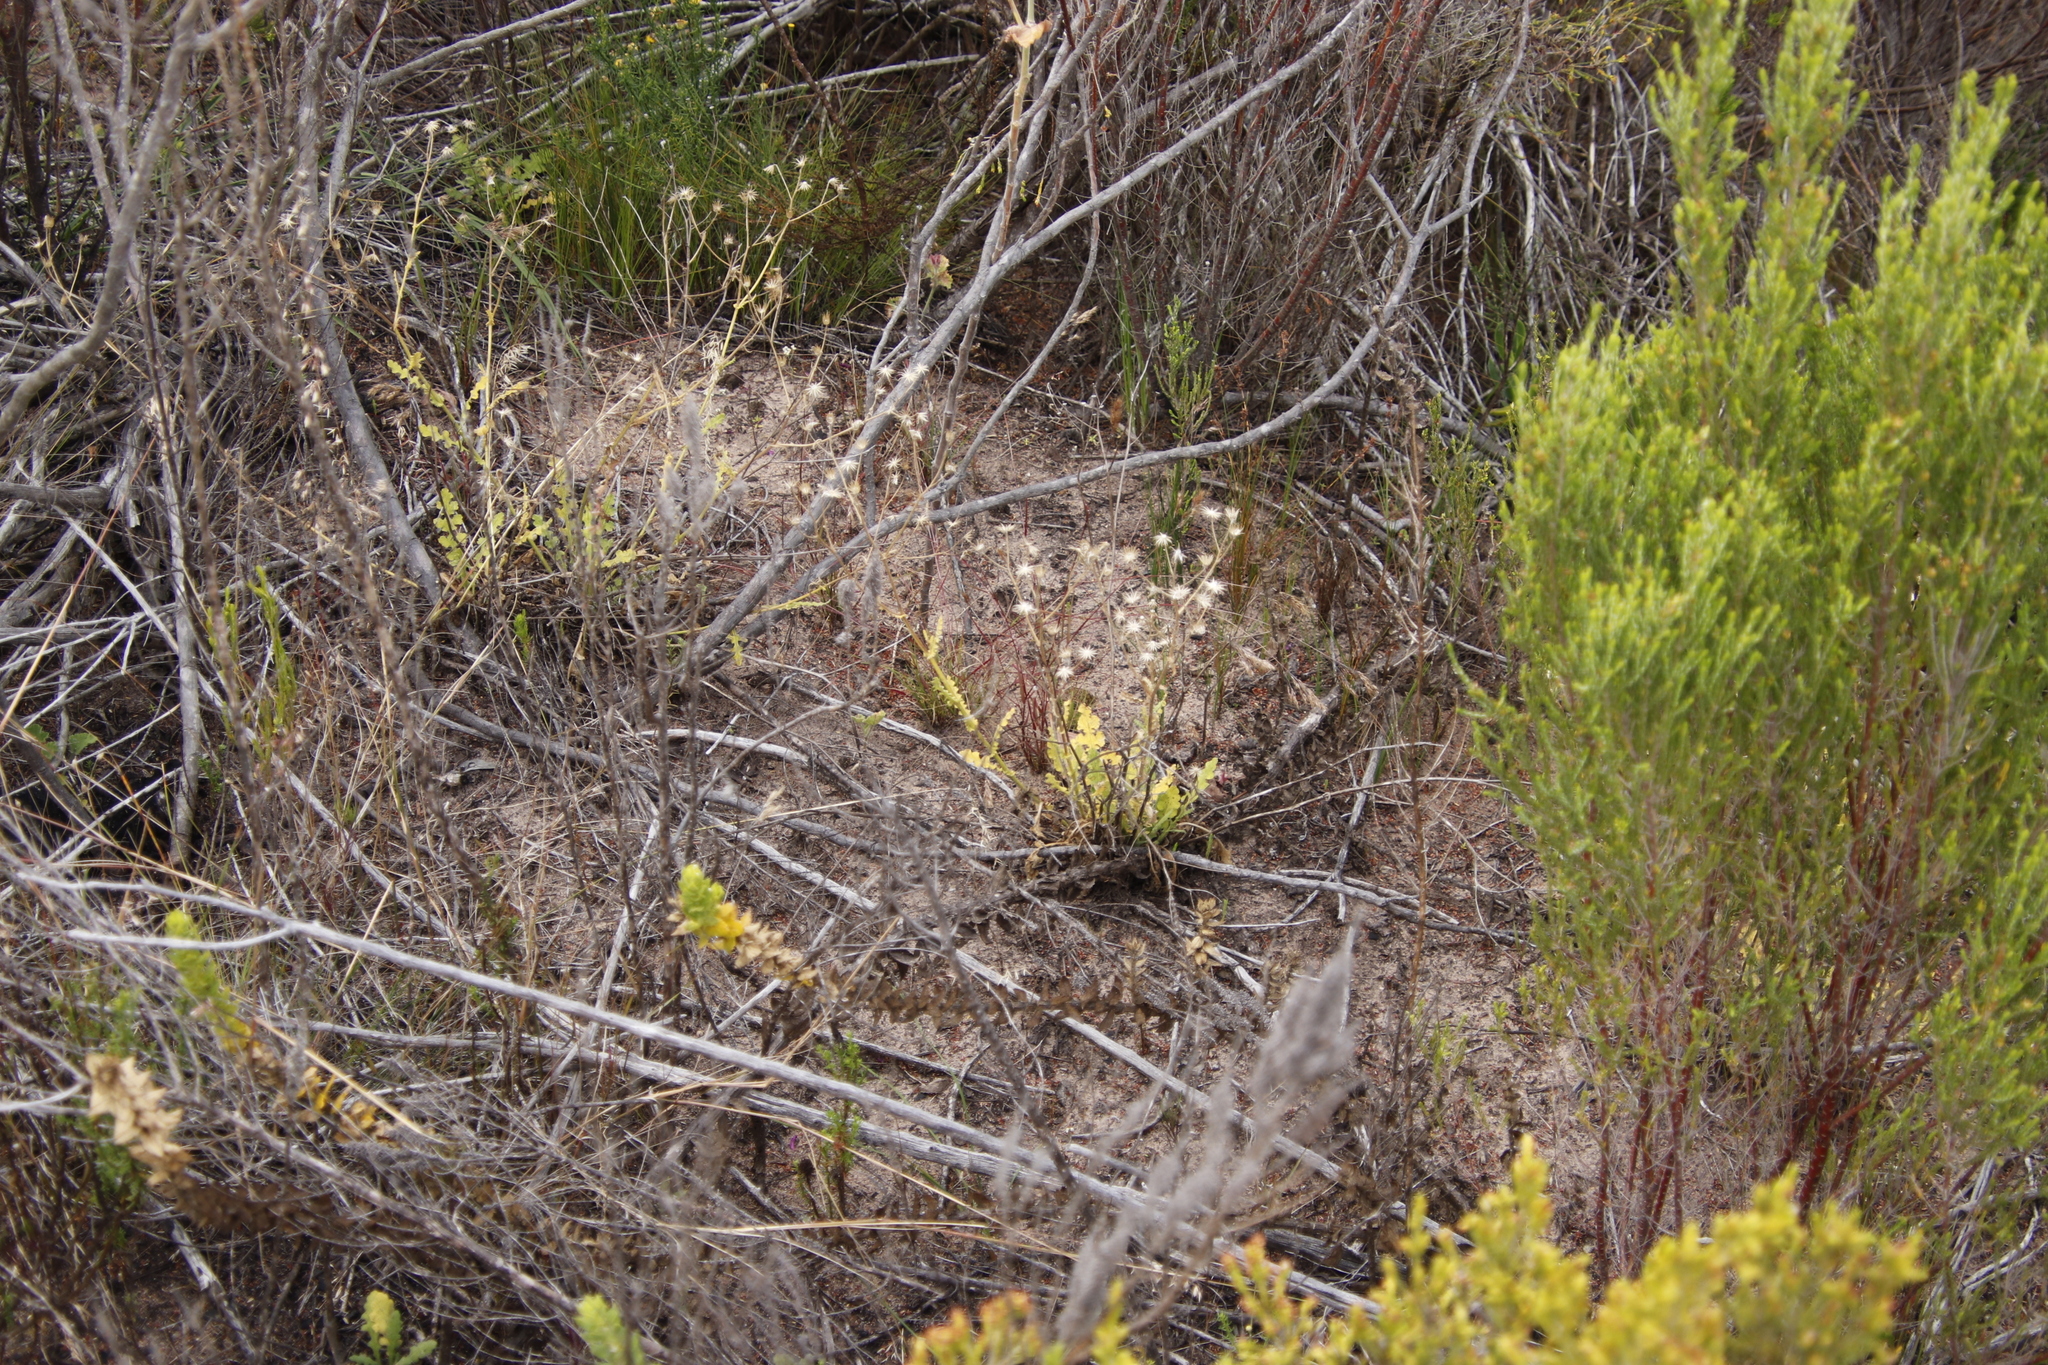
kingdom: Plantae
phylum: Tracheophyta
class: Magnoliopsida
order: Asterales
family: Asteraceae
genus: Senecio
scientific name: Senecio hastatus
